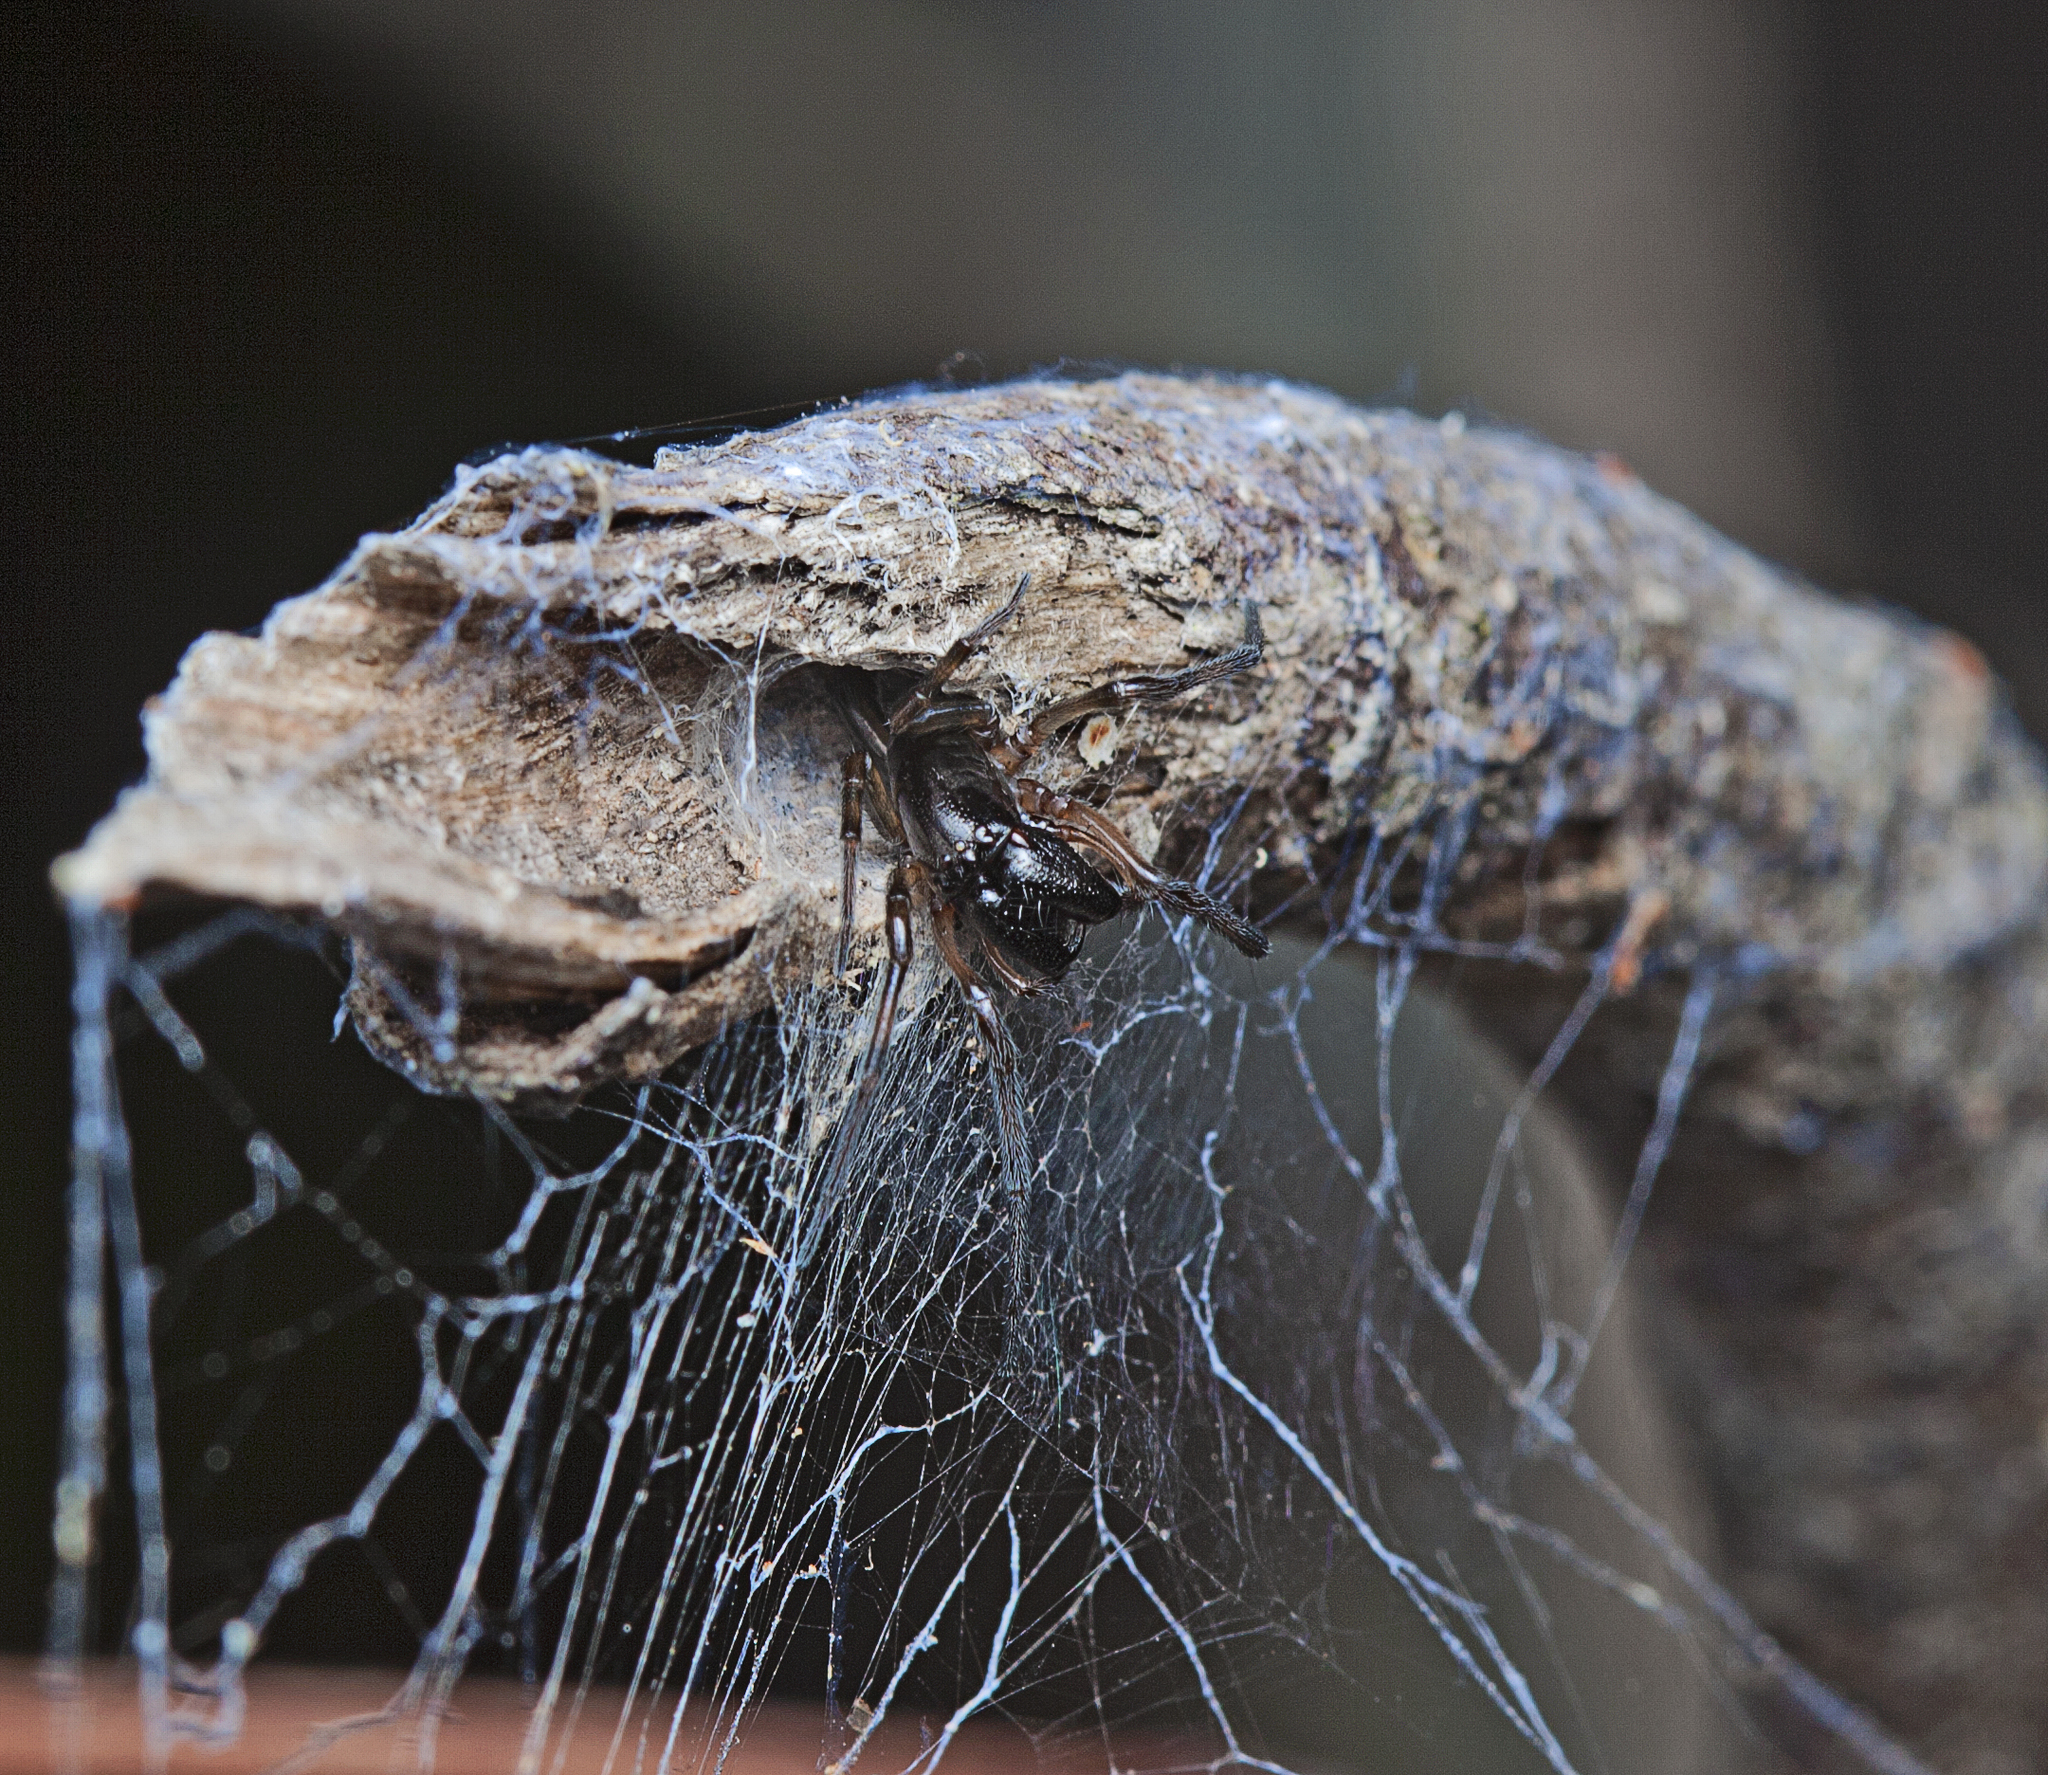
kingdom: Animalia
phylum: Arthropoda
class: Arachnida
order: Araneae
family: Desidae
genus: Paramatachia
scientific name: Paramatachia decorata
